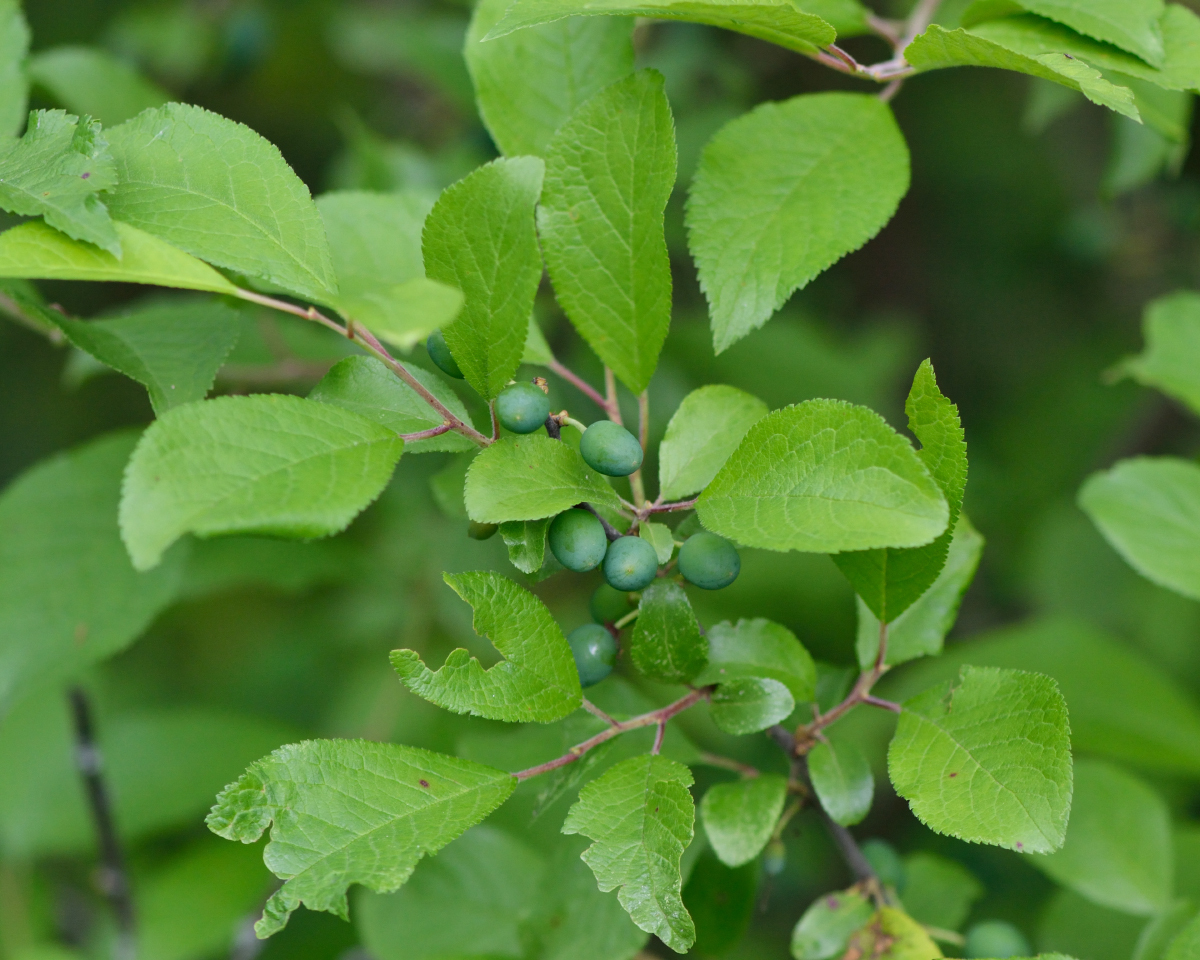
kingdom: Plantae
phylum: Tracheophyta
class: Magnoliopsida
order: Rosales
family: Rosaceae
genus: Prunus
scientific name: Prunus spinosa
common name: Blackthorn
